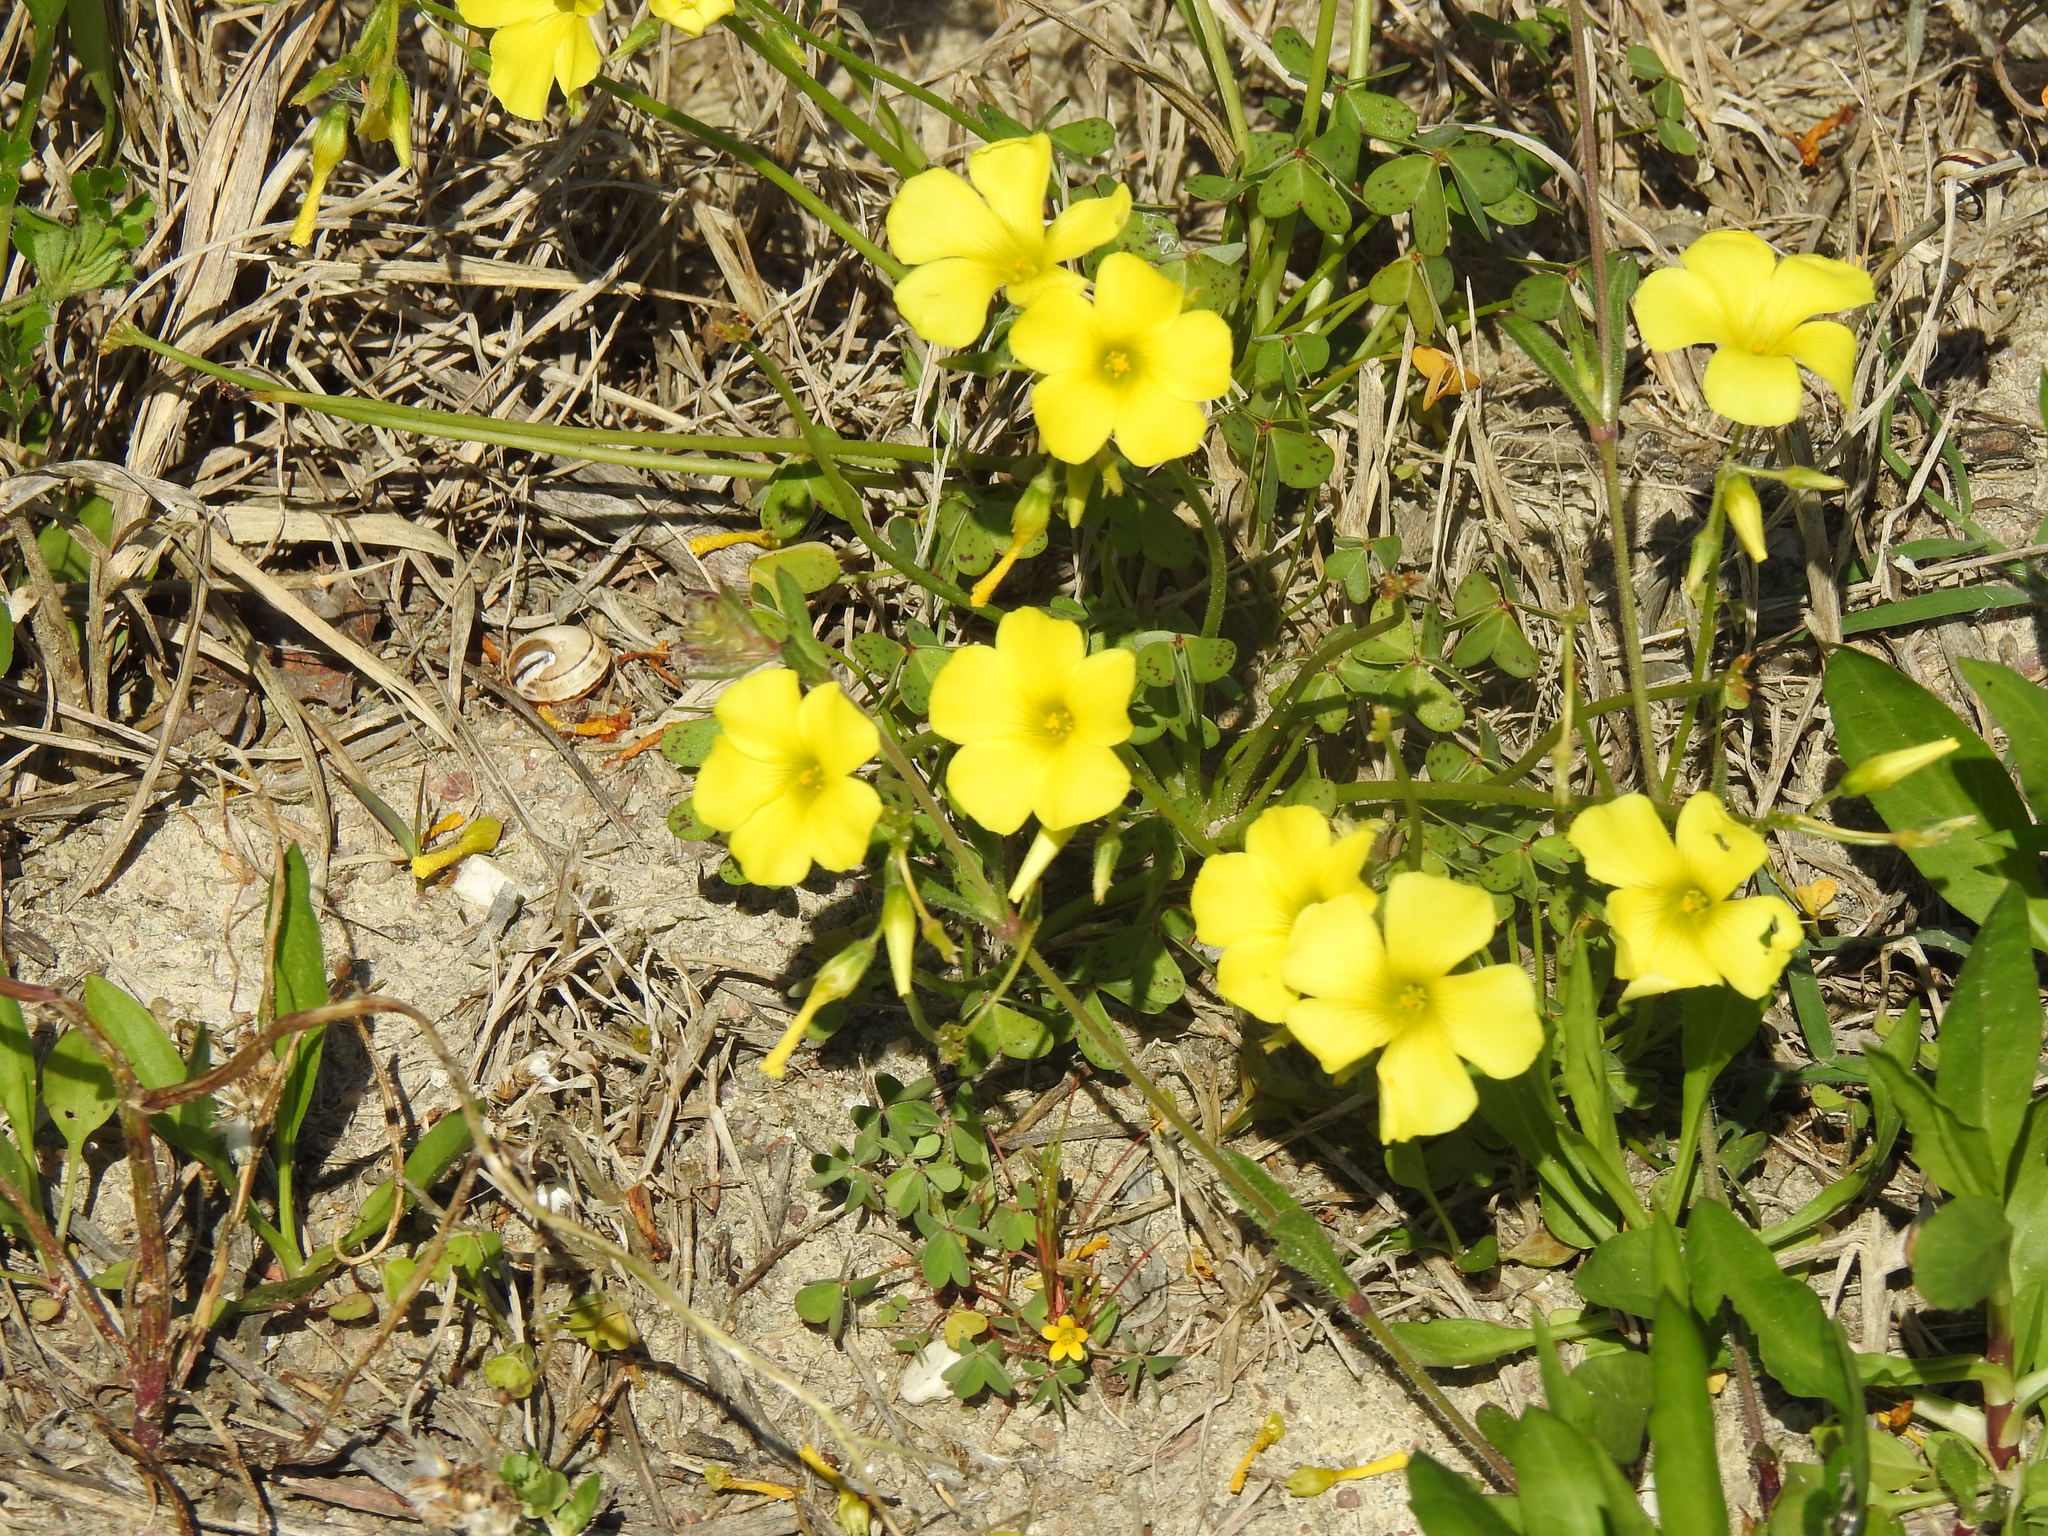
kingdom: Plantae
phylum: Tracheophyta
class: Magnoliopsida
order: Oxalidales
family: Oxalidaceae
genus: Oxalis
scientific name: Oxalis pes-caprae
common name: Bermuda-buttercup
